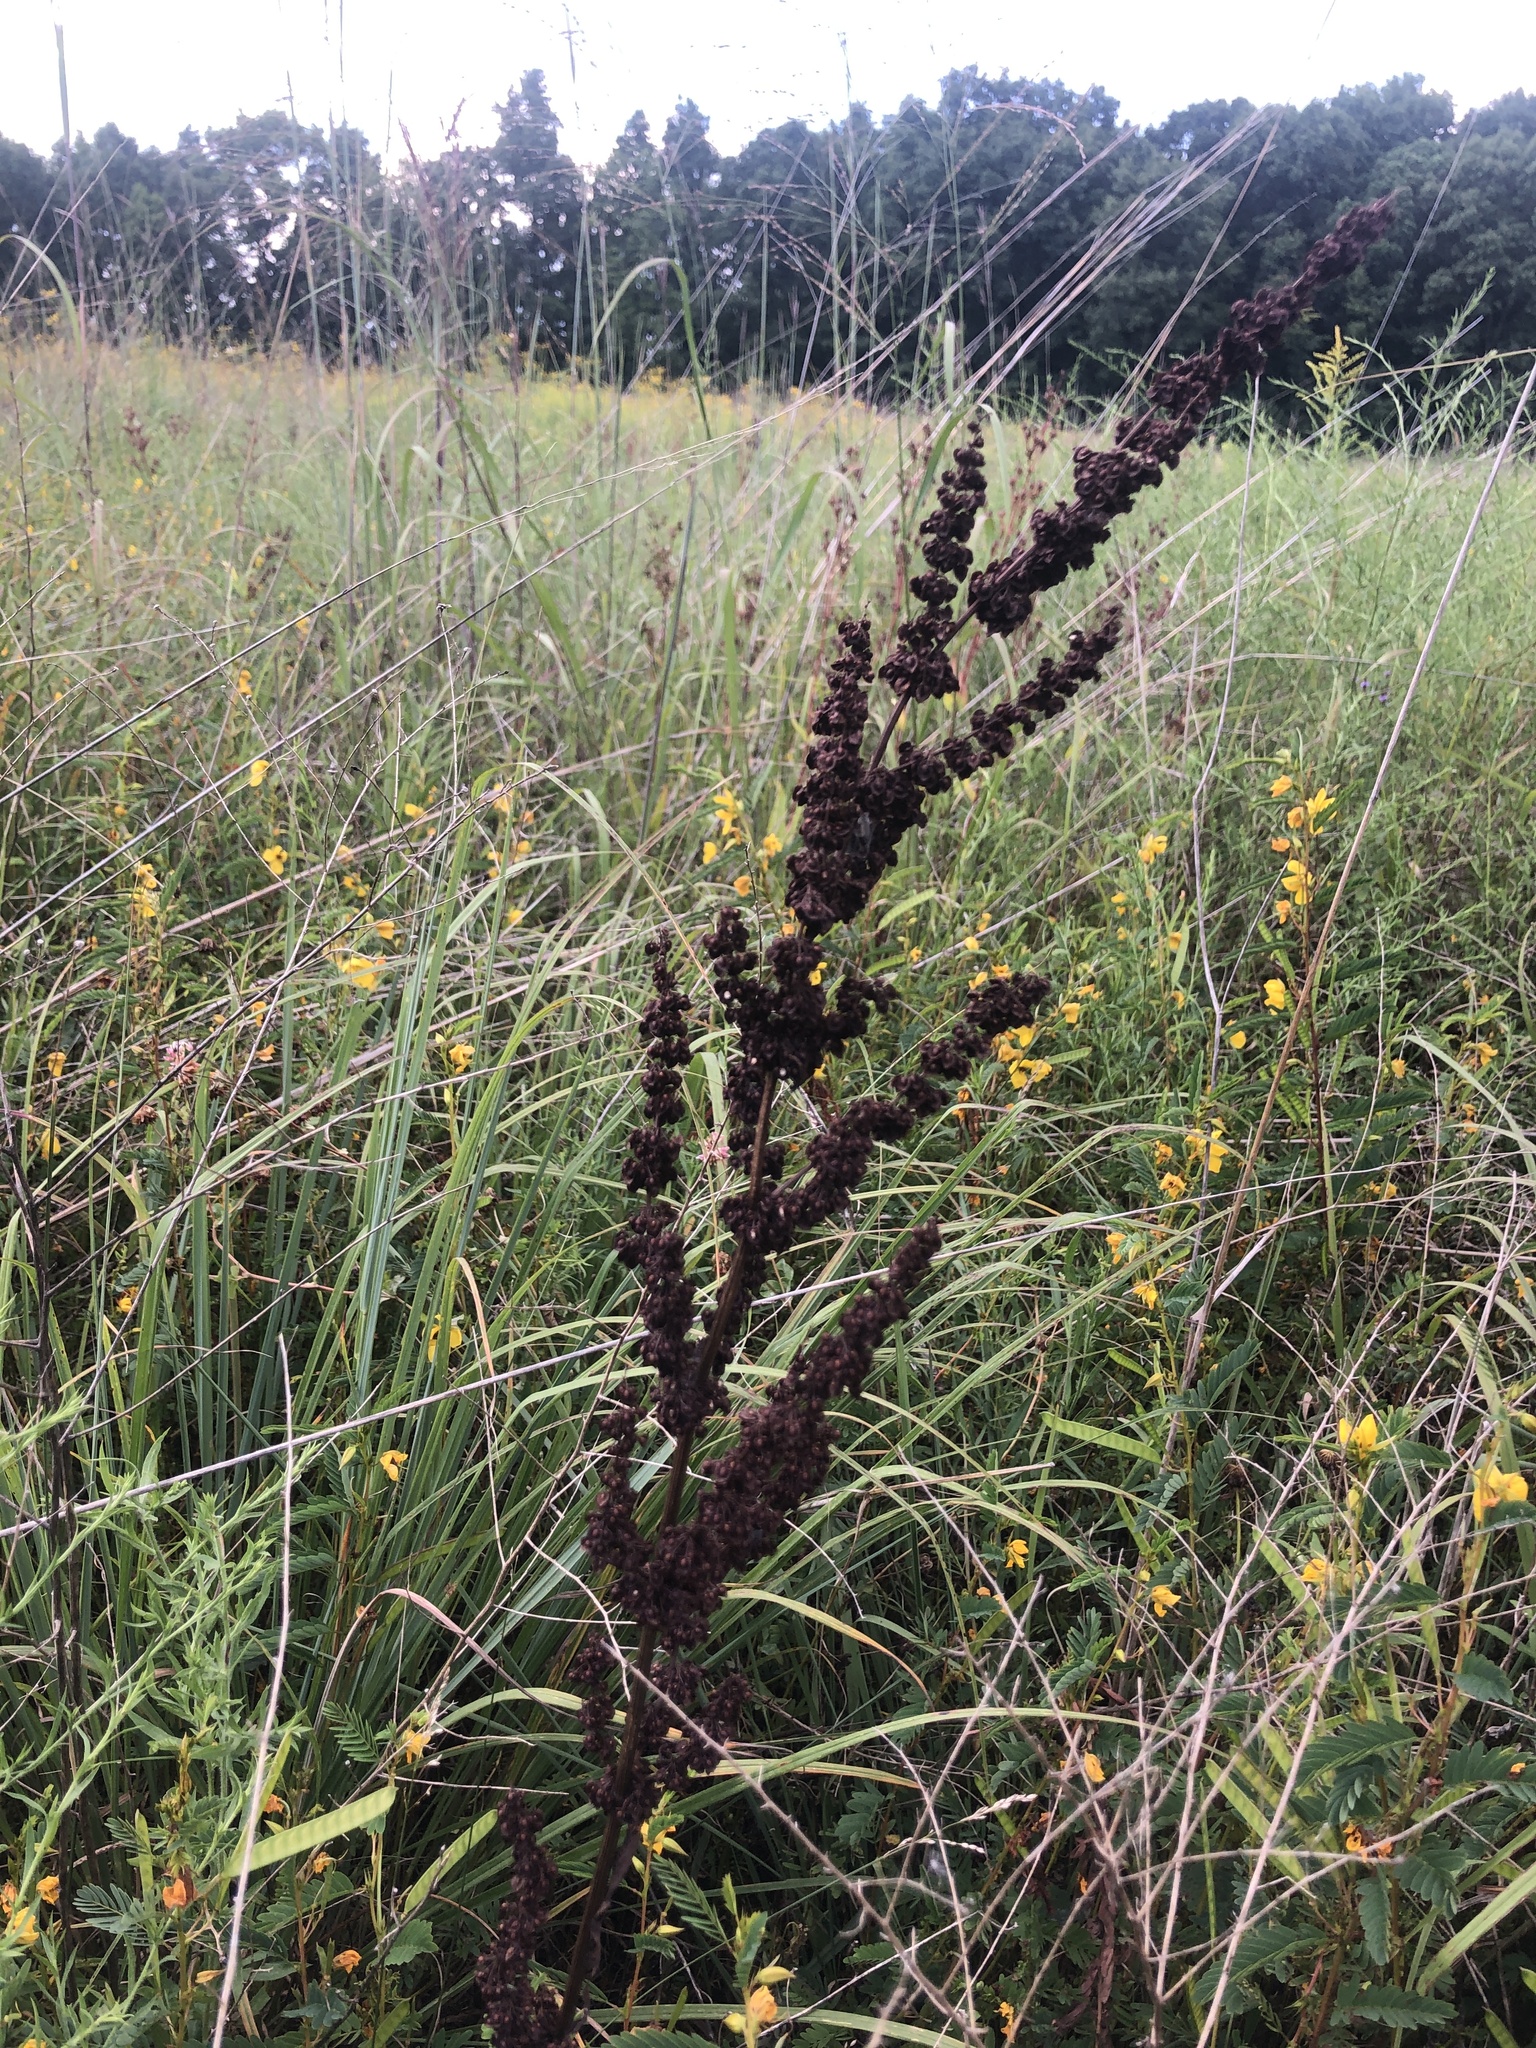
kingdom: Plantae
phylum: Tracheophyta
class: Magnoliopsida
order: Caryophyllales
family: Polygonaceae
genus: Rumex
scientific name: Rumex crispus
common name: Curled dock
